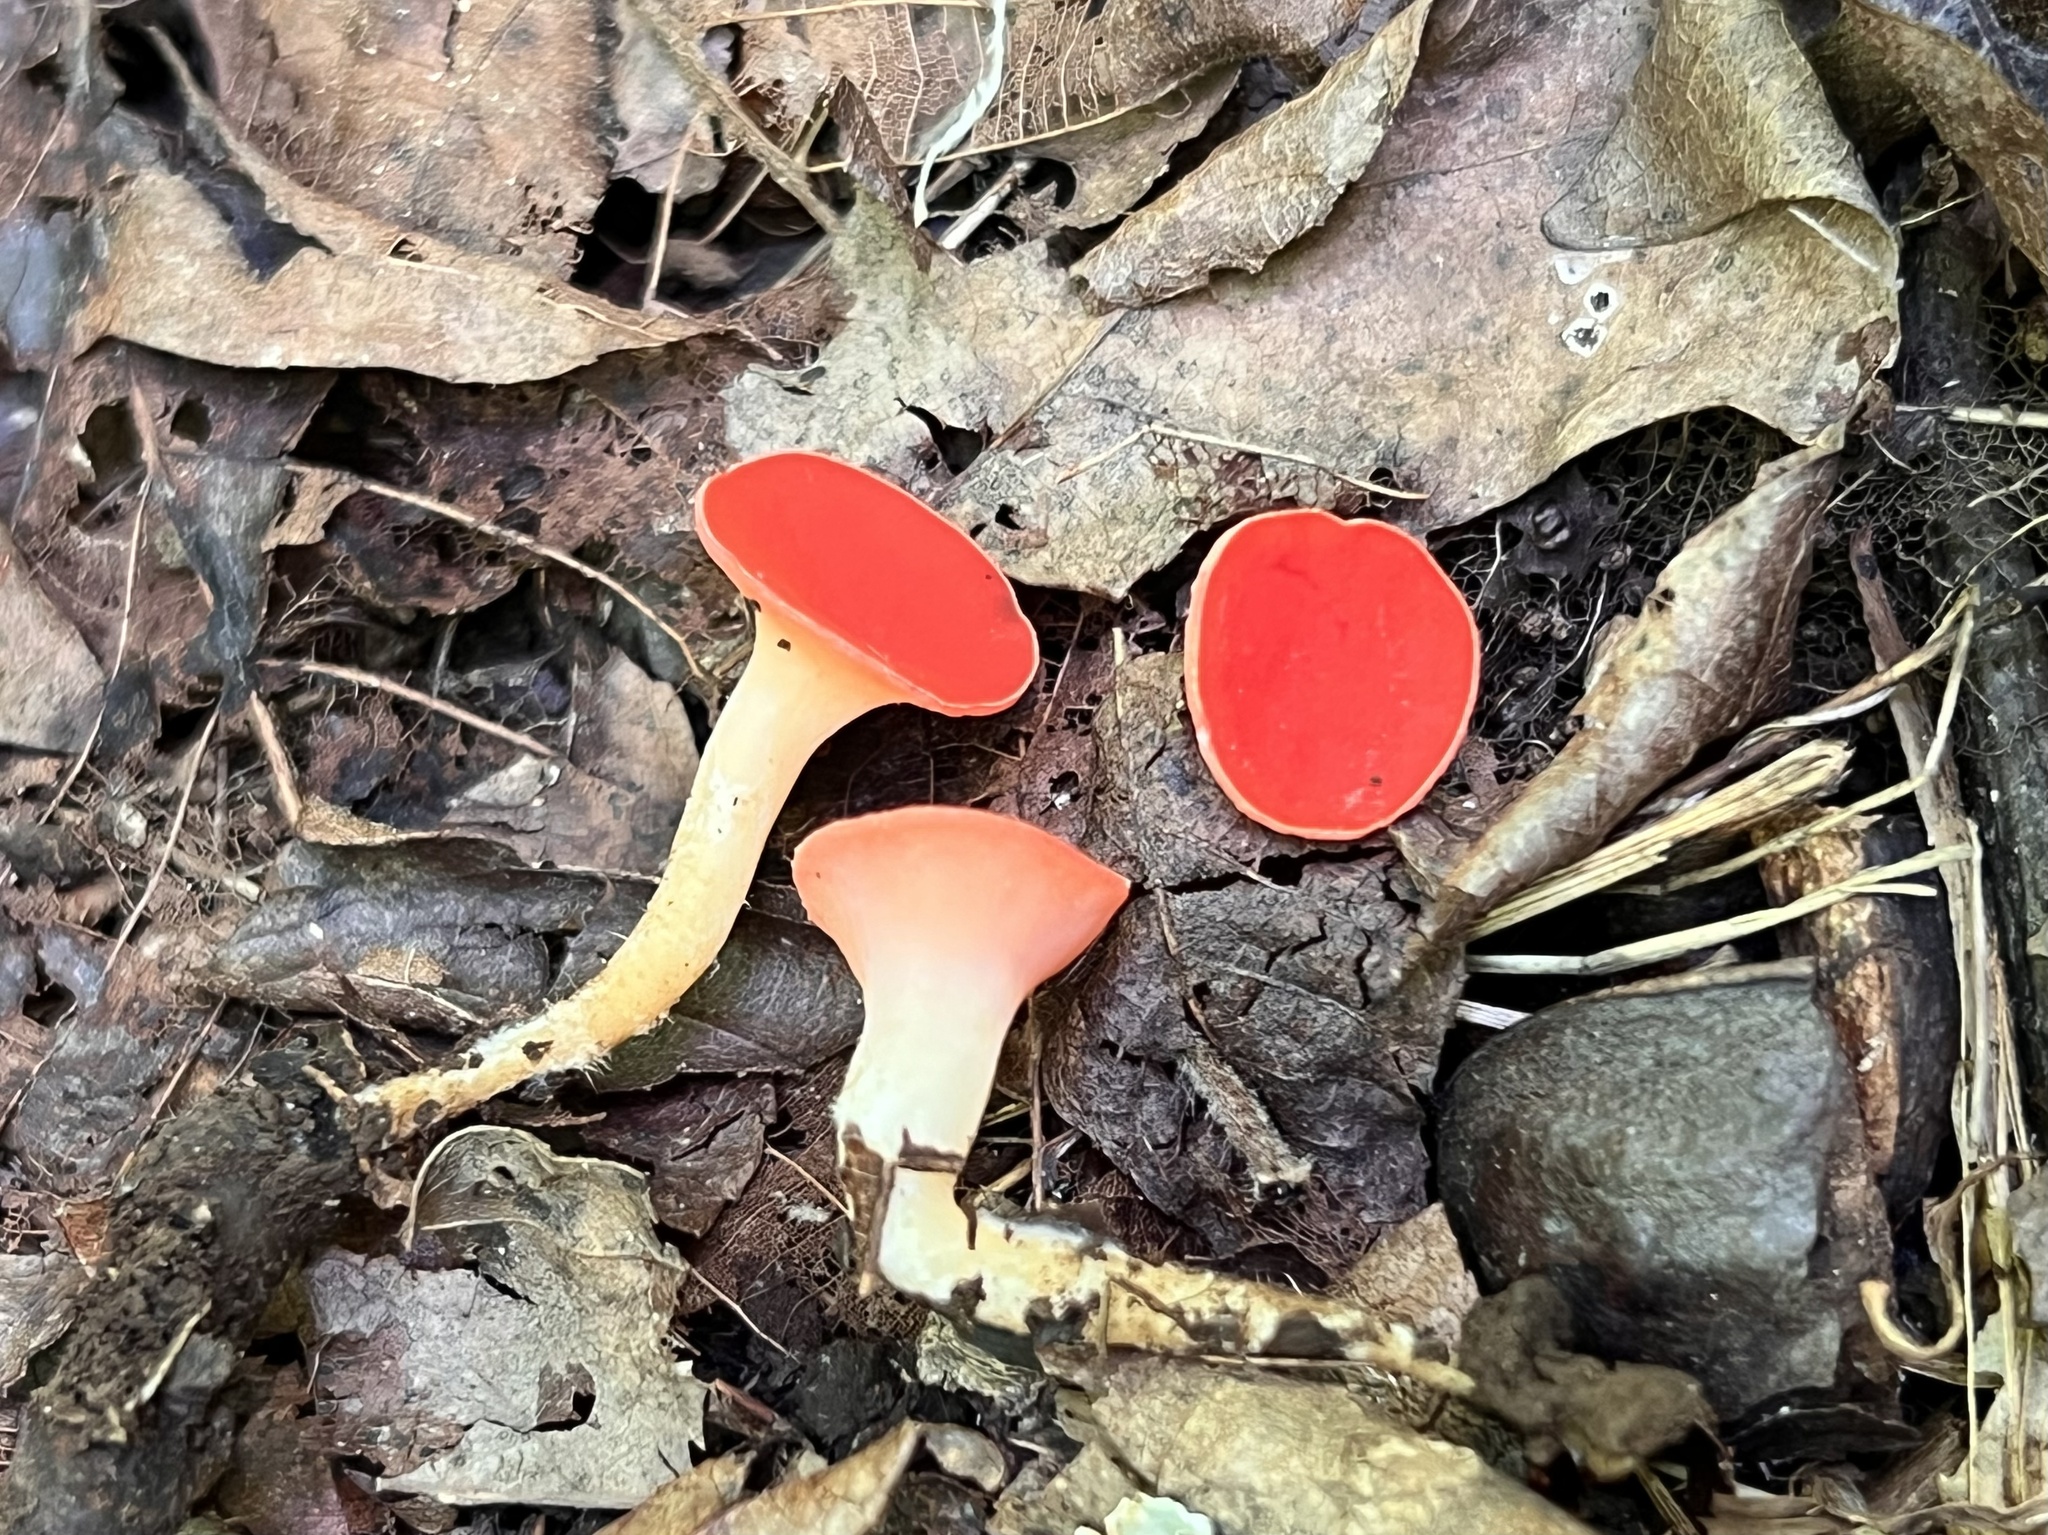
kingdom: Fungi
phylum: Ascomycota
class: Pezizomycetes
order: Pezizales
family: Sarcoscyphaceae
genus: Sarcoscypha
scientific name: Sarcoscypha occidentalis
